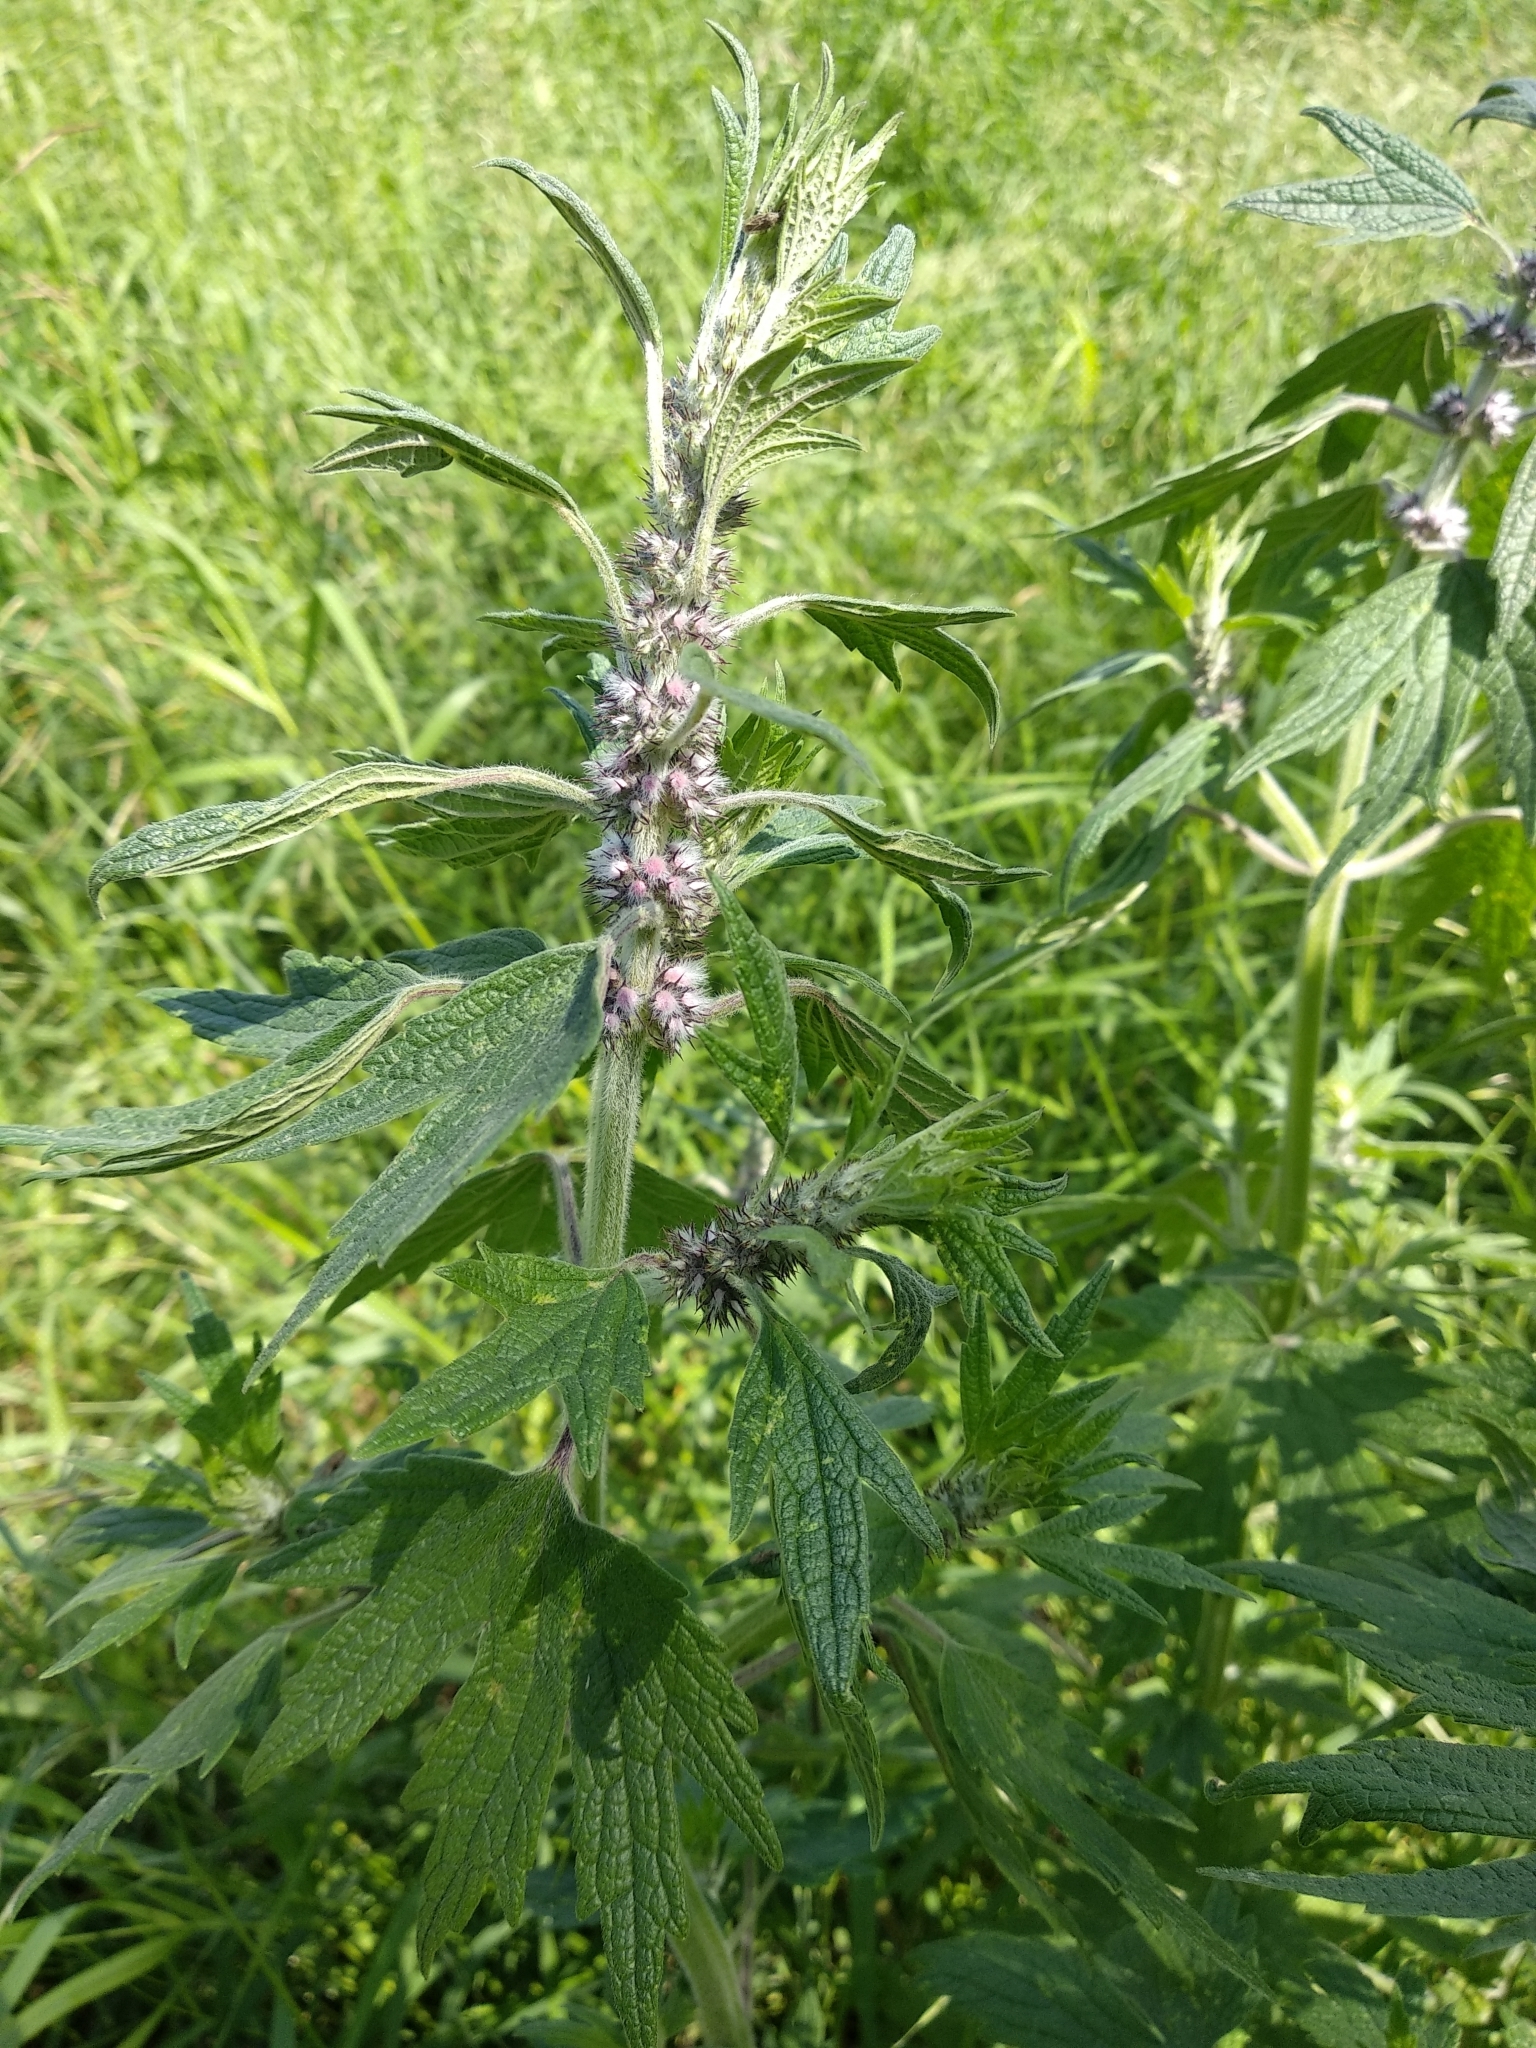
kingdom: Plantae
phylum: Tracheophyta
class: Magnoliopsida
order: Lamiales
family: Lamiaceae
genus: Leonurus
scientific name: Leonurus quinquelobatus
